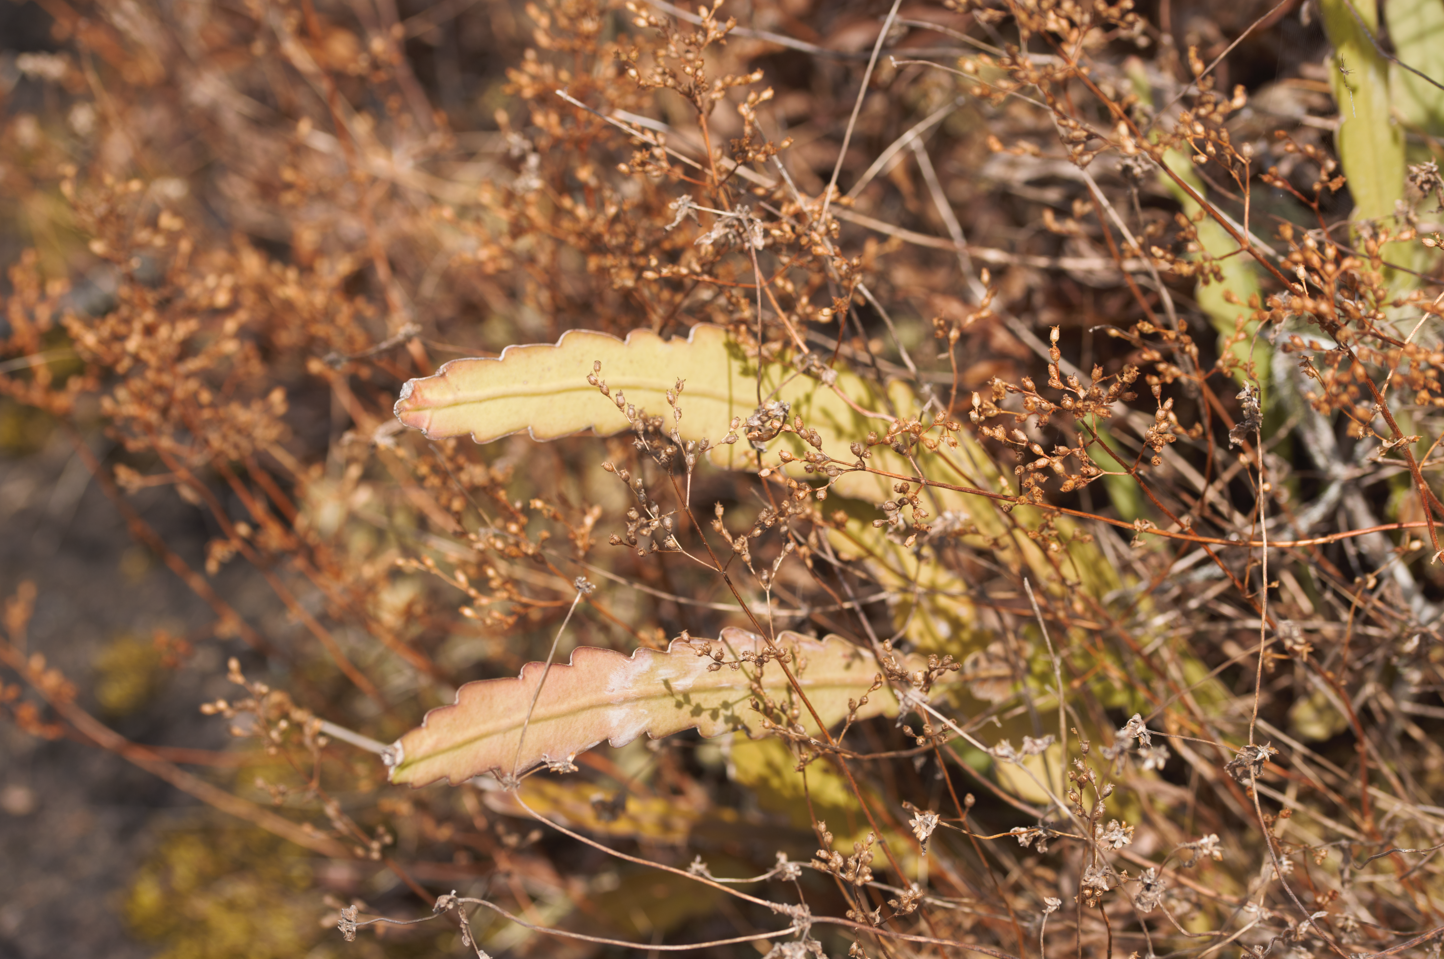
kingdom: Plantae
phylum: Tracheophyta
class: Magnoliopsida
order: Caryophyllales
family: Cactaceae
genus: Epiphyllum
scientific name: Epiphyllum phyllanthus
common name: Climbing cactus
